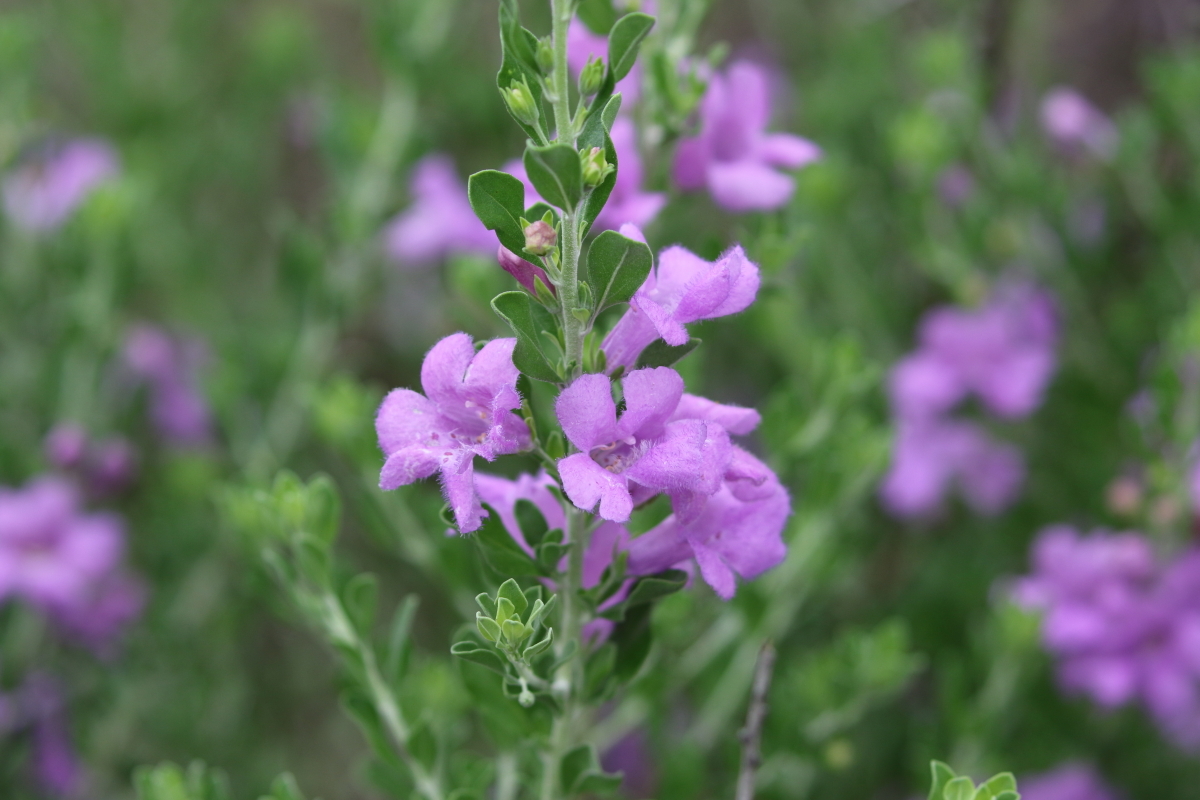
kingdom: Plantae
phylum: Tracheophyta
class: Magnoliopsida
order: Lamiales
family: Scrophulariaceae
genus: Leucophyllum
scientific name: Leucophyllum frutescens
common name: Texas silverleaf
